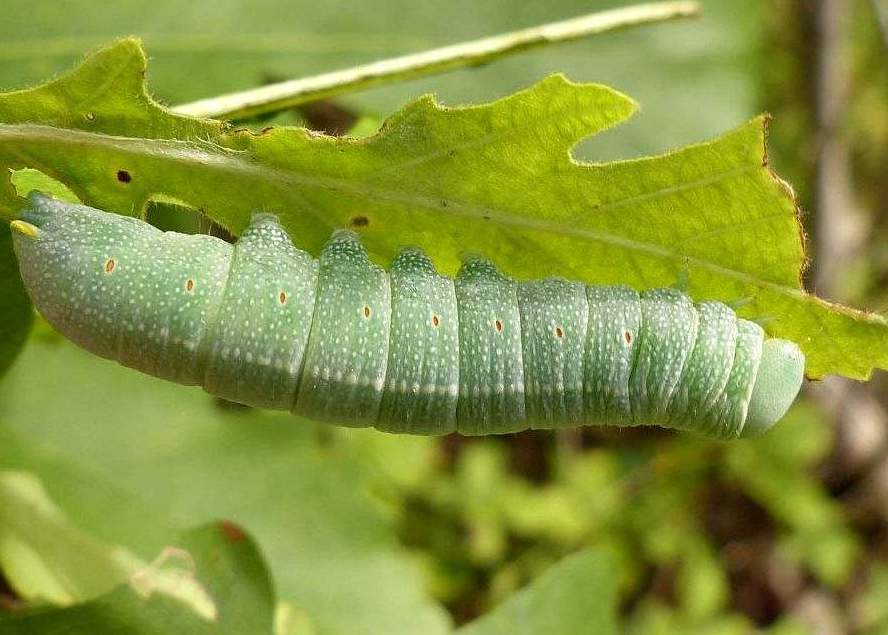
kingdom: Animalia
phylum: Arthropoda
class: Insecta
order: Lepidoptera
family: Notodontidae
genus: Nadata
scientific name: Nadata gibbosa
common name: White-dotted prominent
